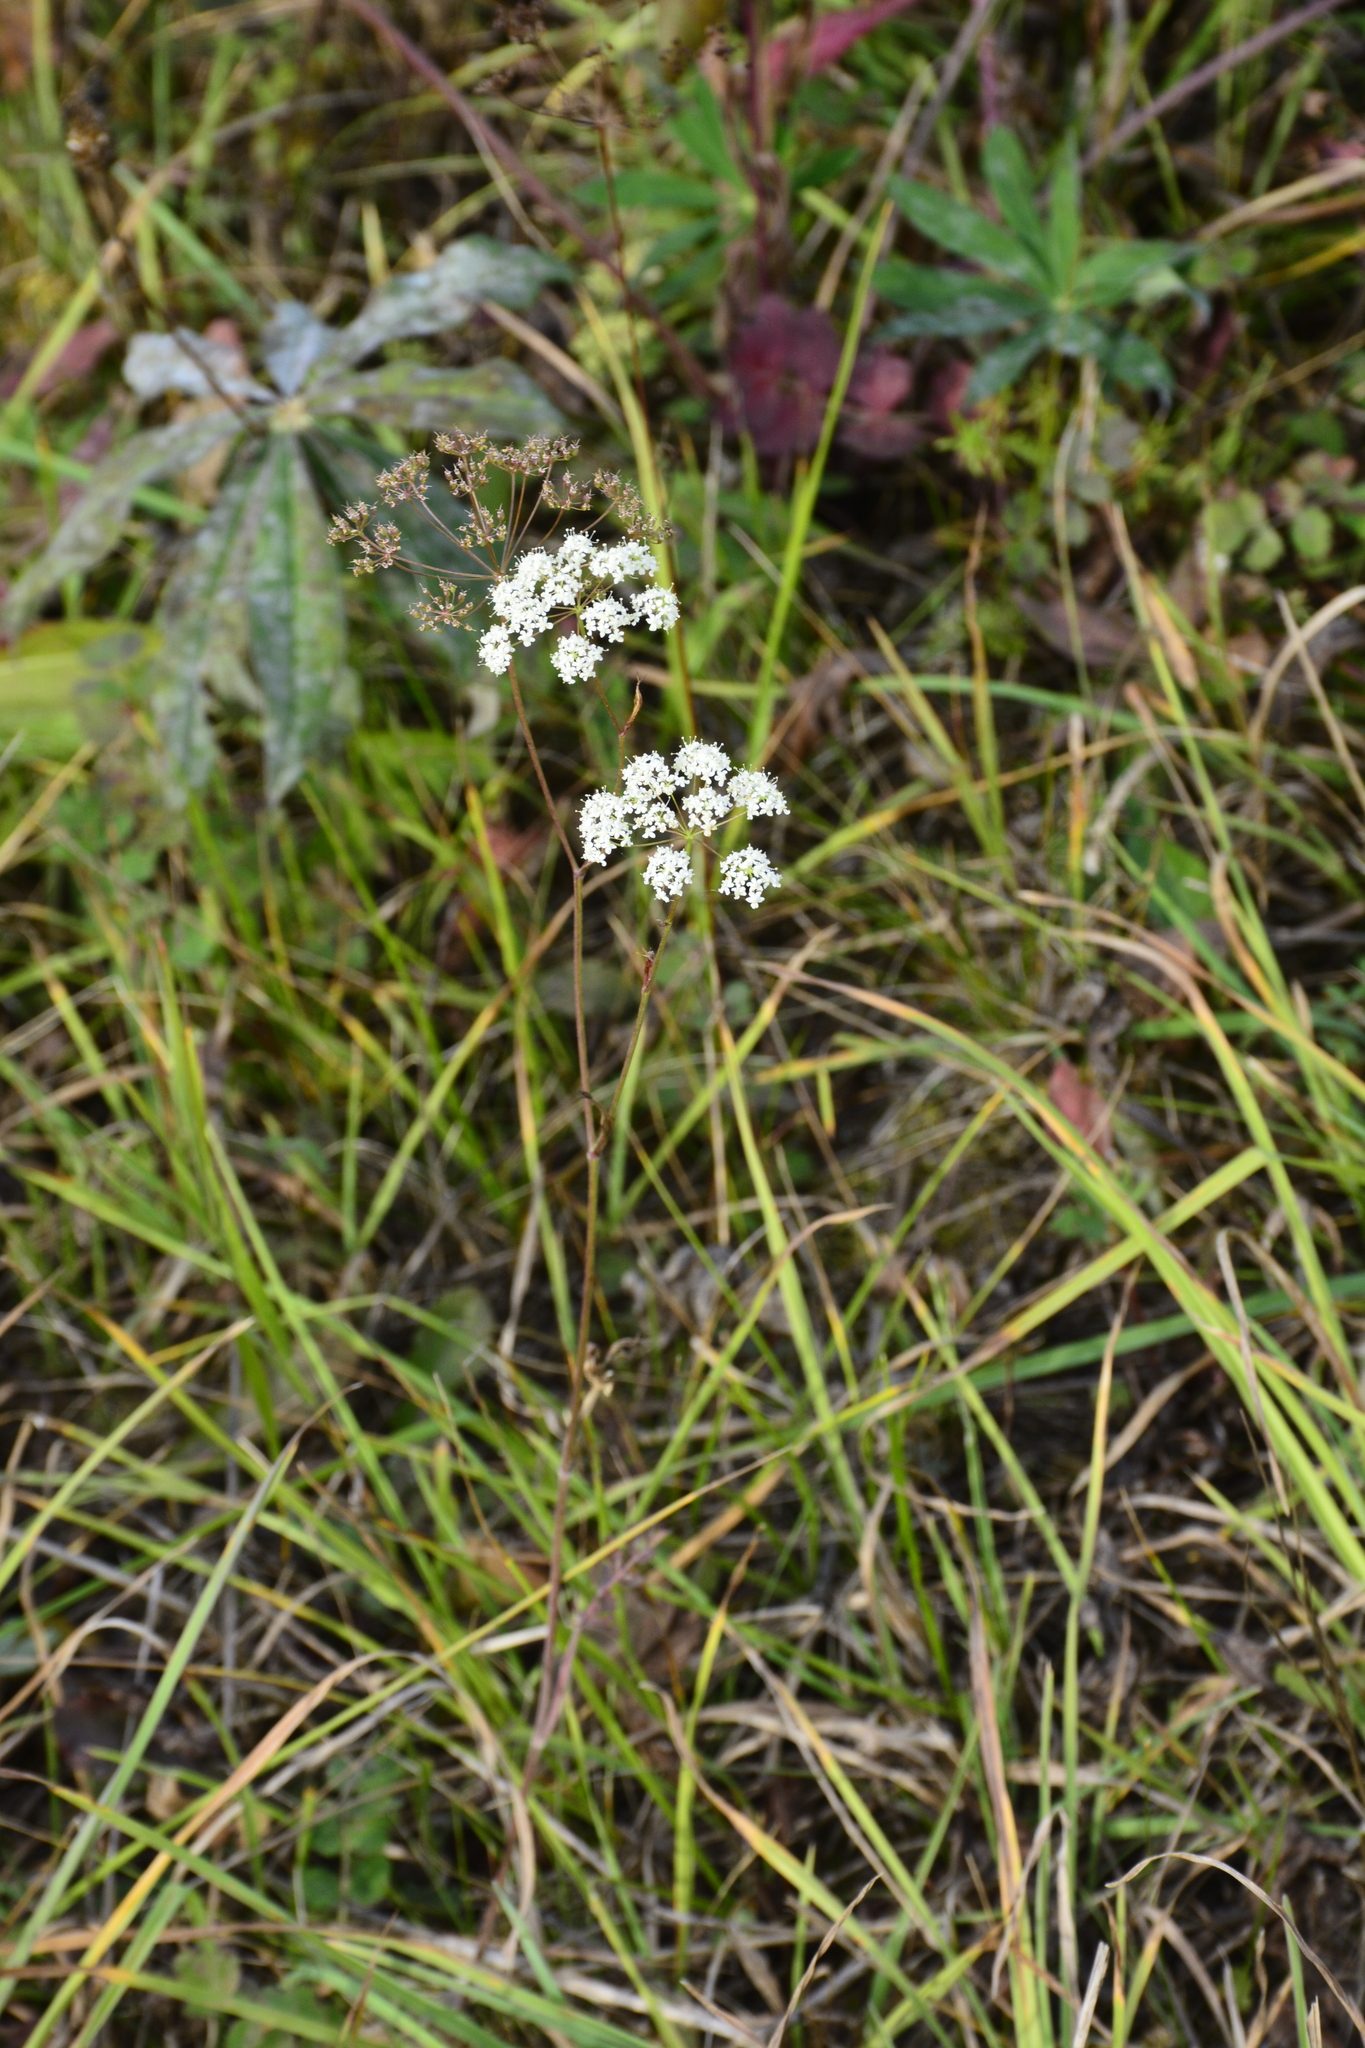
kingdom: Plantae
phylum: Tracheophyta
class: Magnoliopsida
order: Apiales
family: Apiaceae
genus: Pimpinella
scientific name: Pimpinella saxifraga
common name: Burnet-saxifrage
